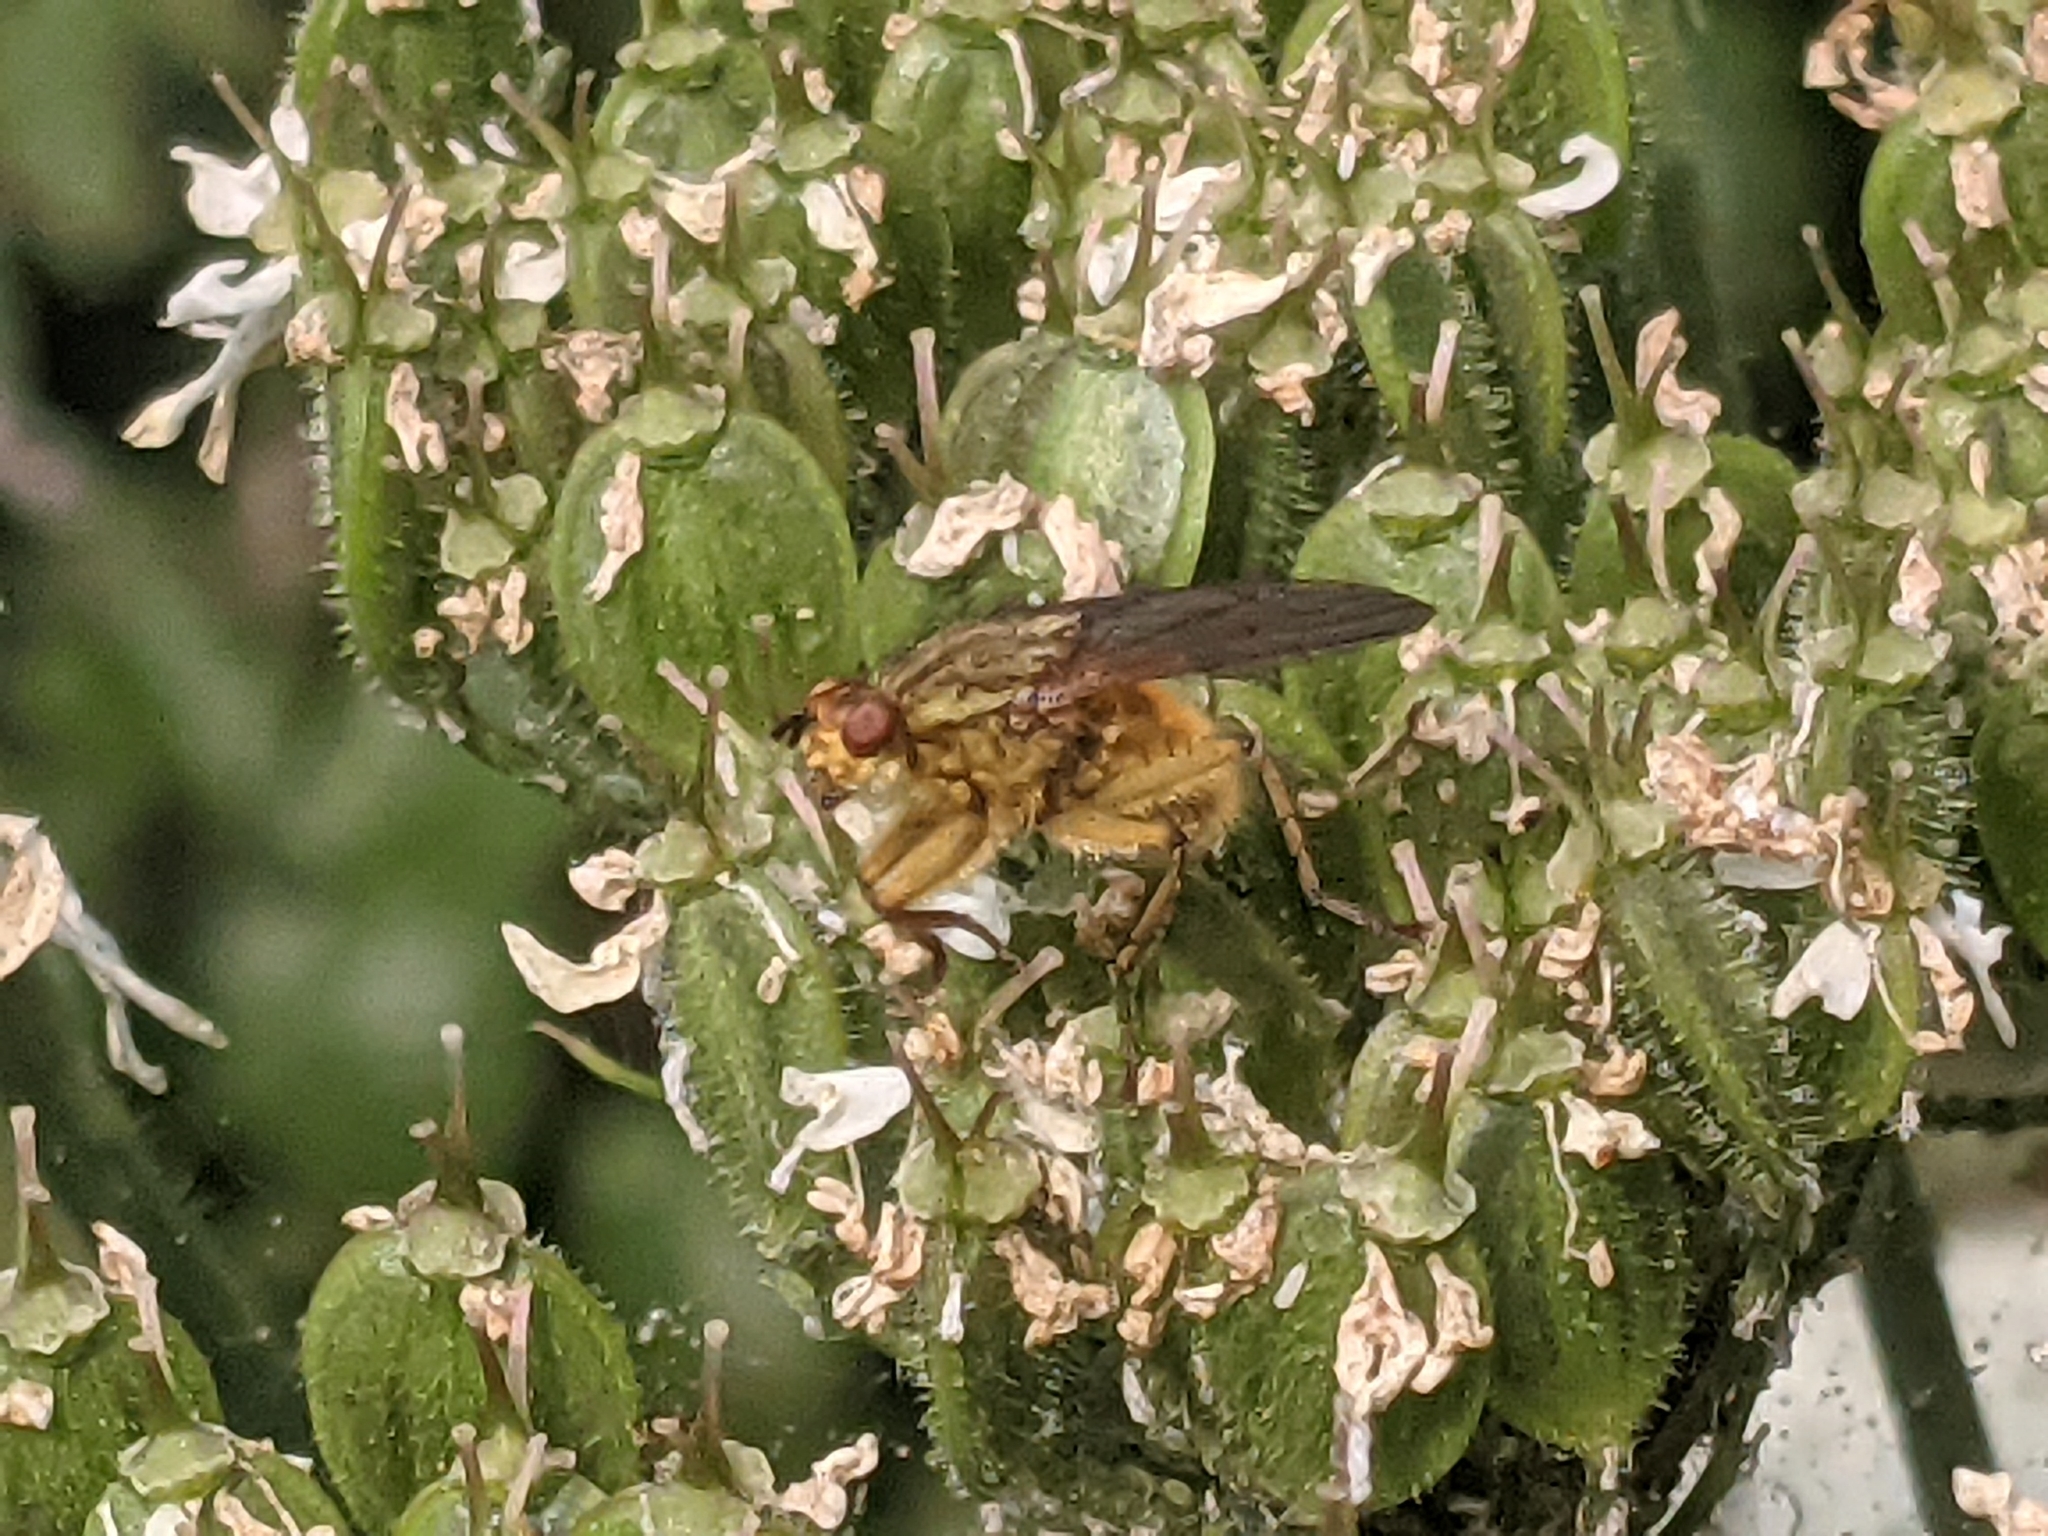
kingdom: Animalia
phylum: Arthropoda
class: Insecta
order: Diptera
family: Scathophagidae
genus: Scathophaga
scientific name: Scathophaga stercoraria
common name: Yellow dung fly
